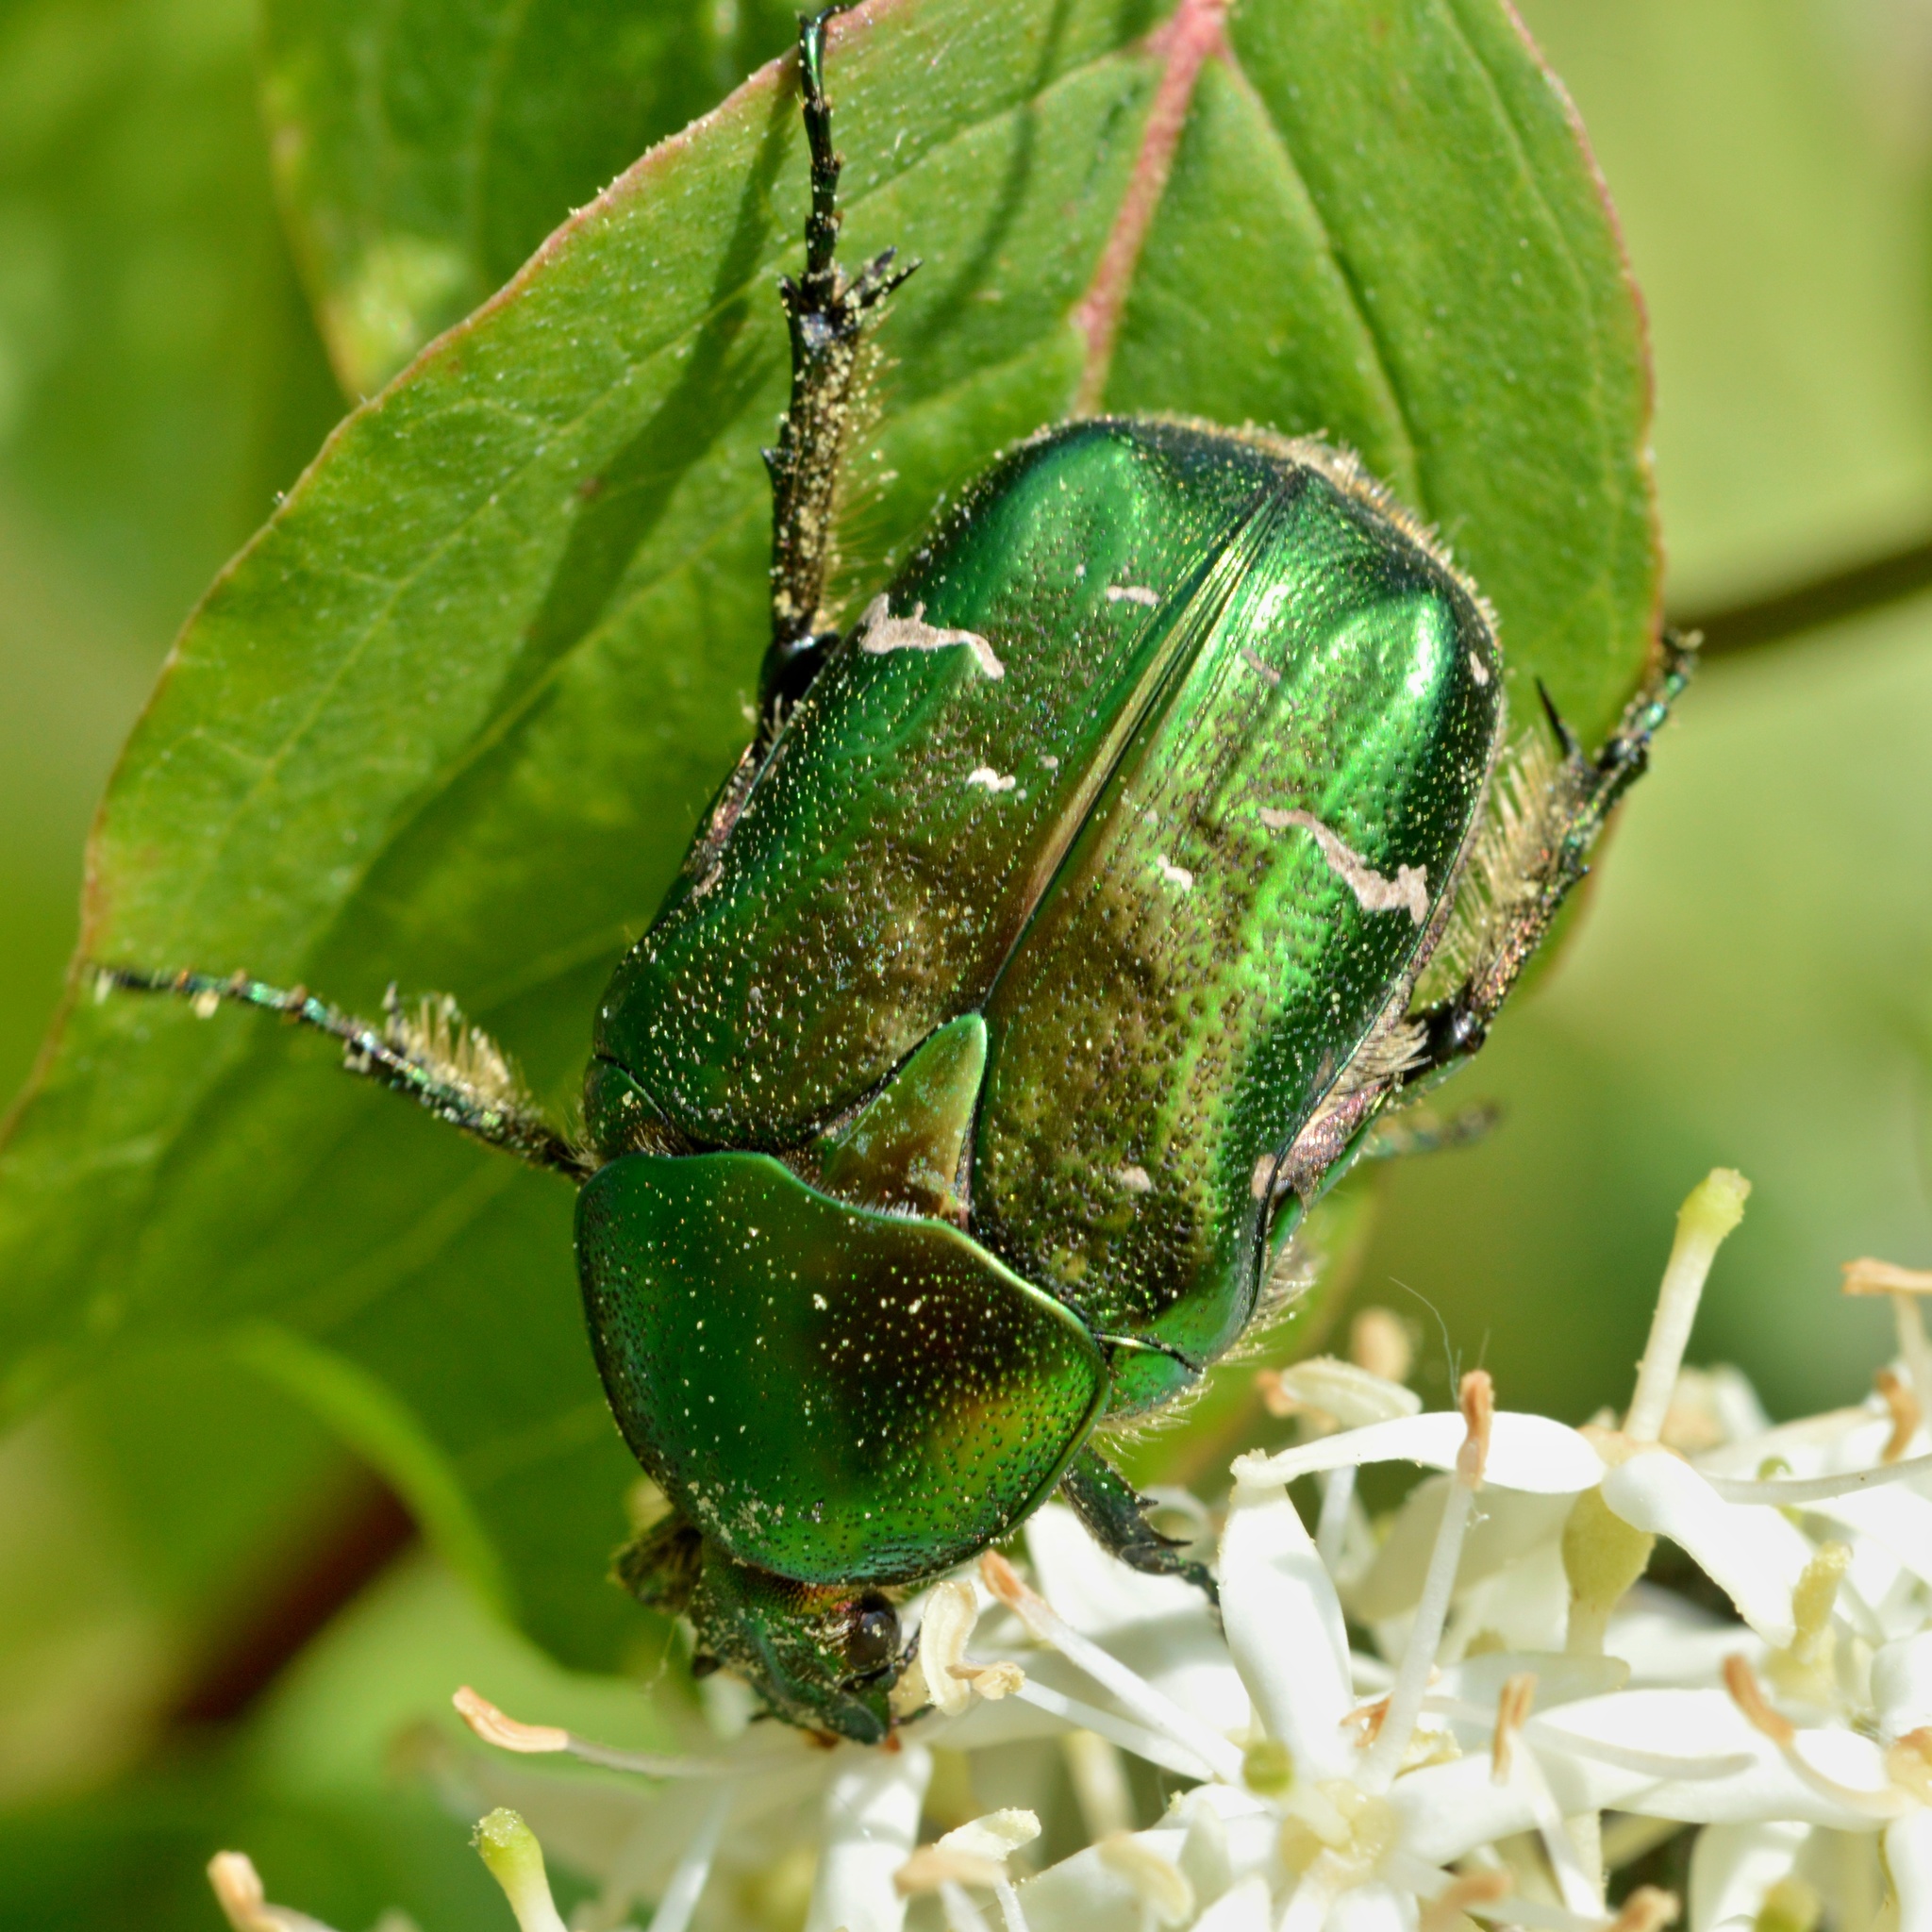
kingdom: Animalia
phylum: Arthropoda
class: Insecta
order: Coleoptera
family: Scarabaeidae
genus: Cetonia
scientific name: Cetonia aurata
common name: Rose chafer
